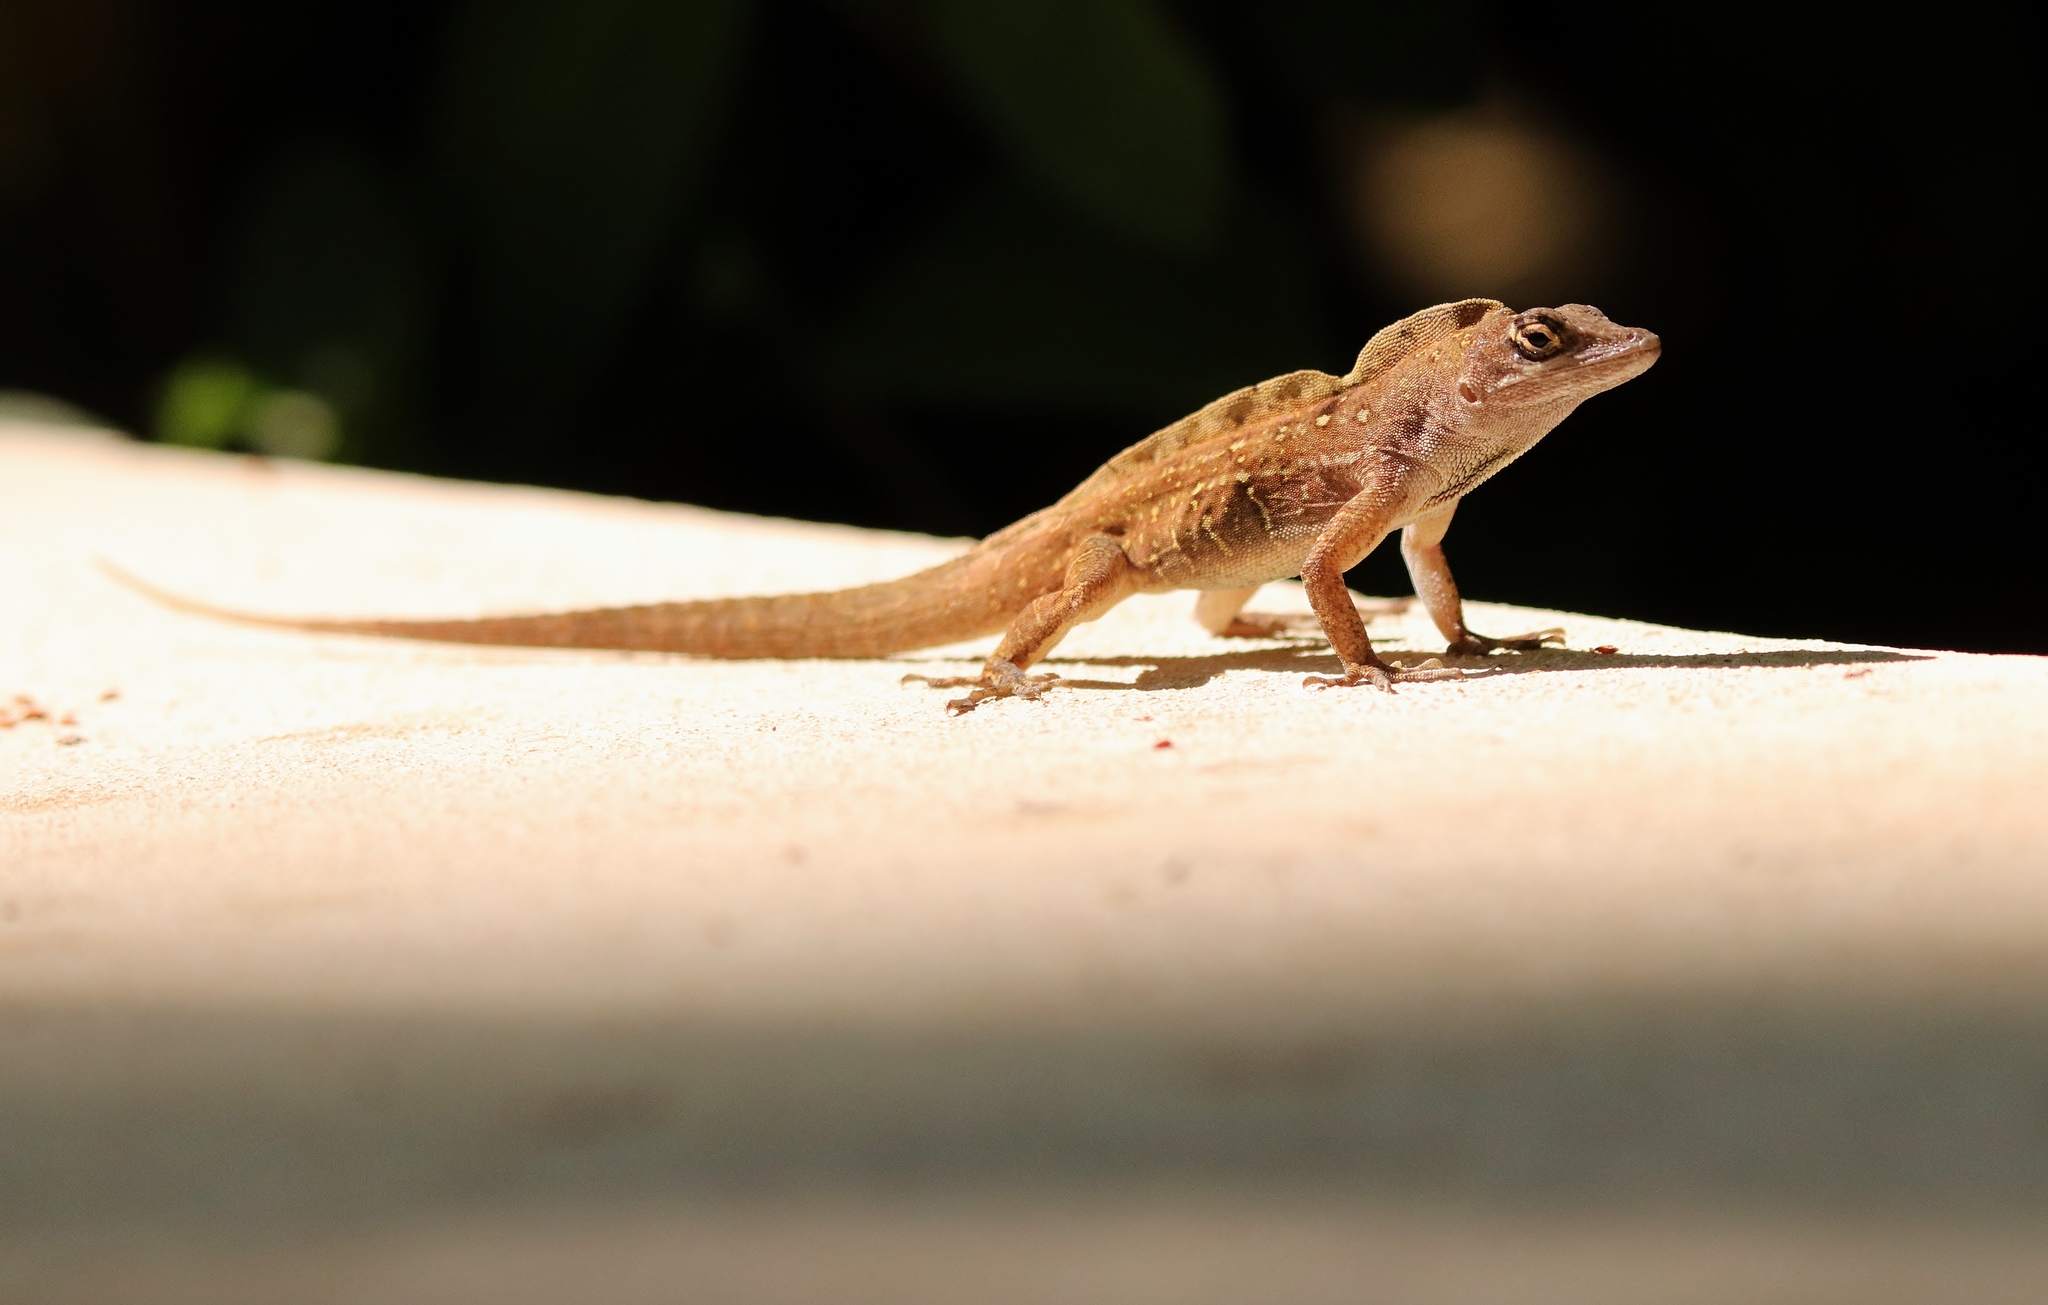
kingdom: Animalia
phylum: Chordata
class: Squamata
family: Dactyloidae
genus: Anolis
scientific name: Anolis sagrei
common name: Brown anole
